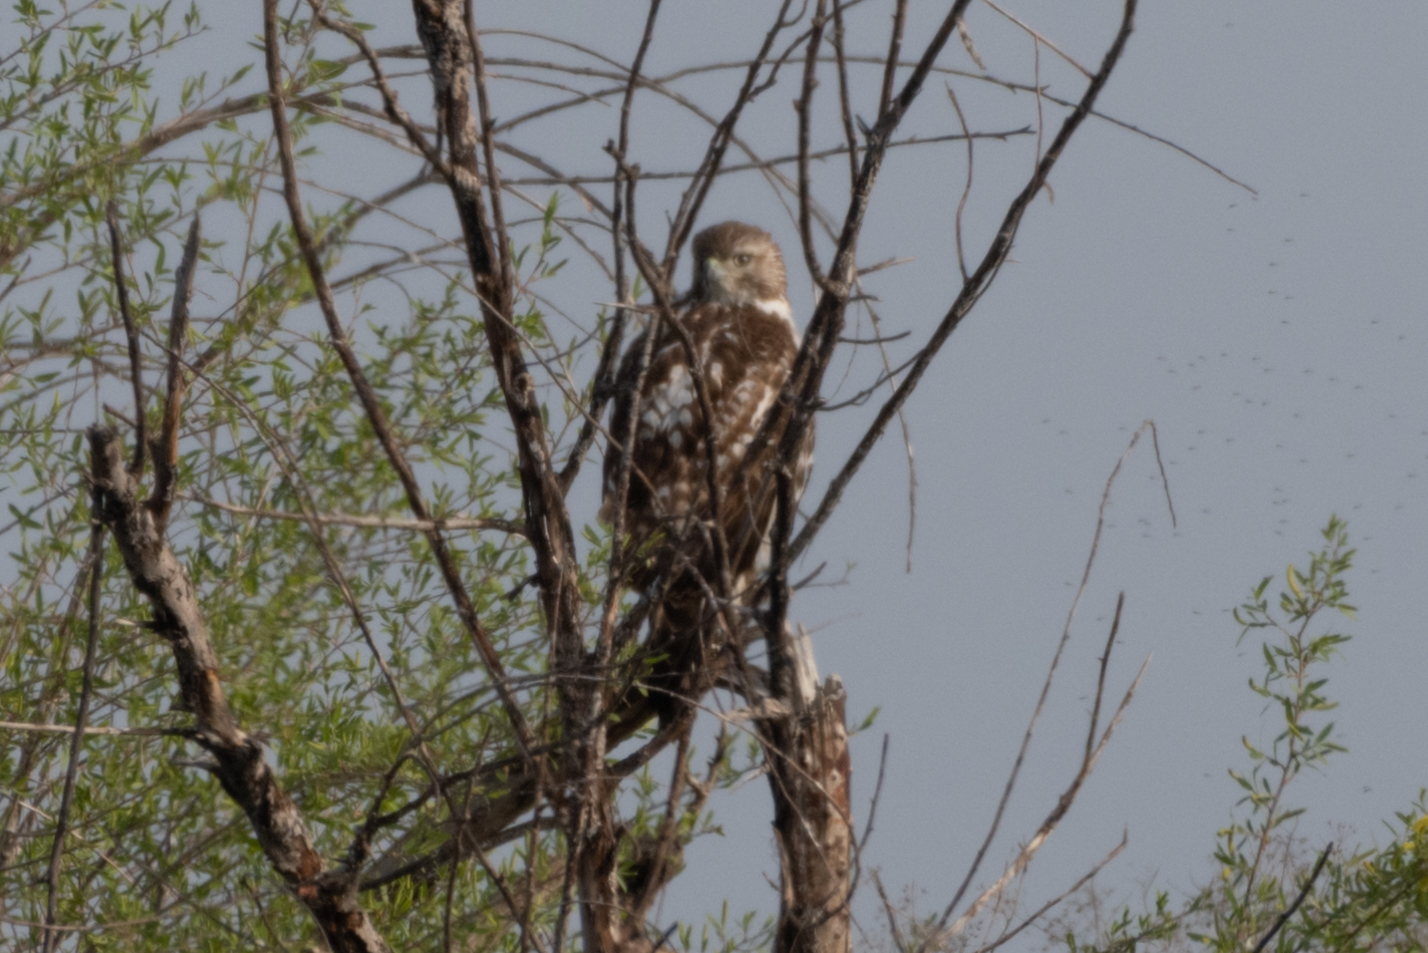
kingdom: Animalia
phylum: Chordata
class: Aves
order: Accipitriformes
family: Accipitridae
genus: Buteo
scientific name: Buteo jamaicensis
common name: Red-tailed hawk
